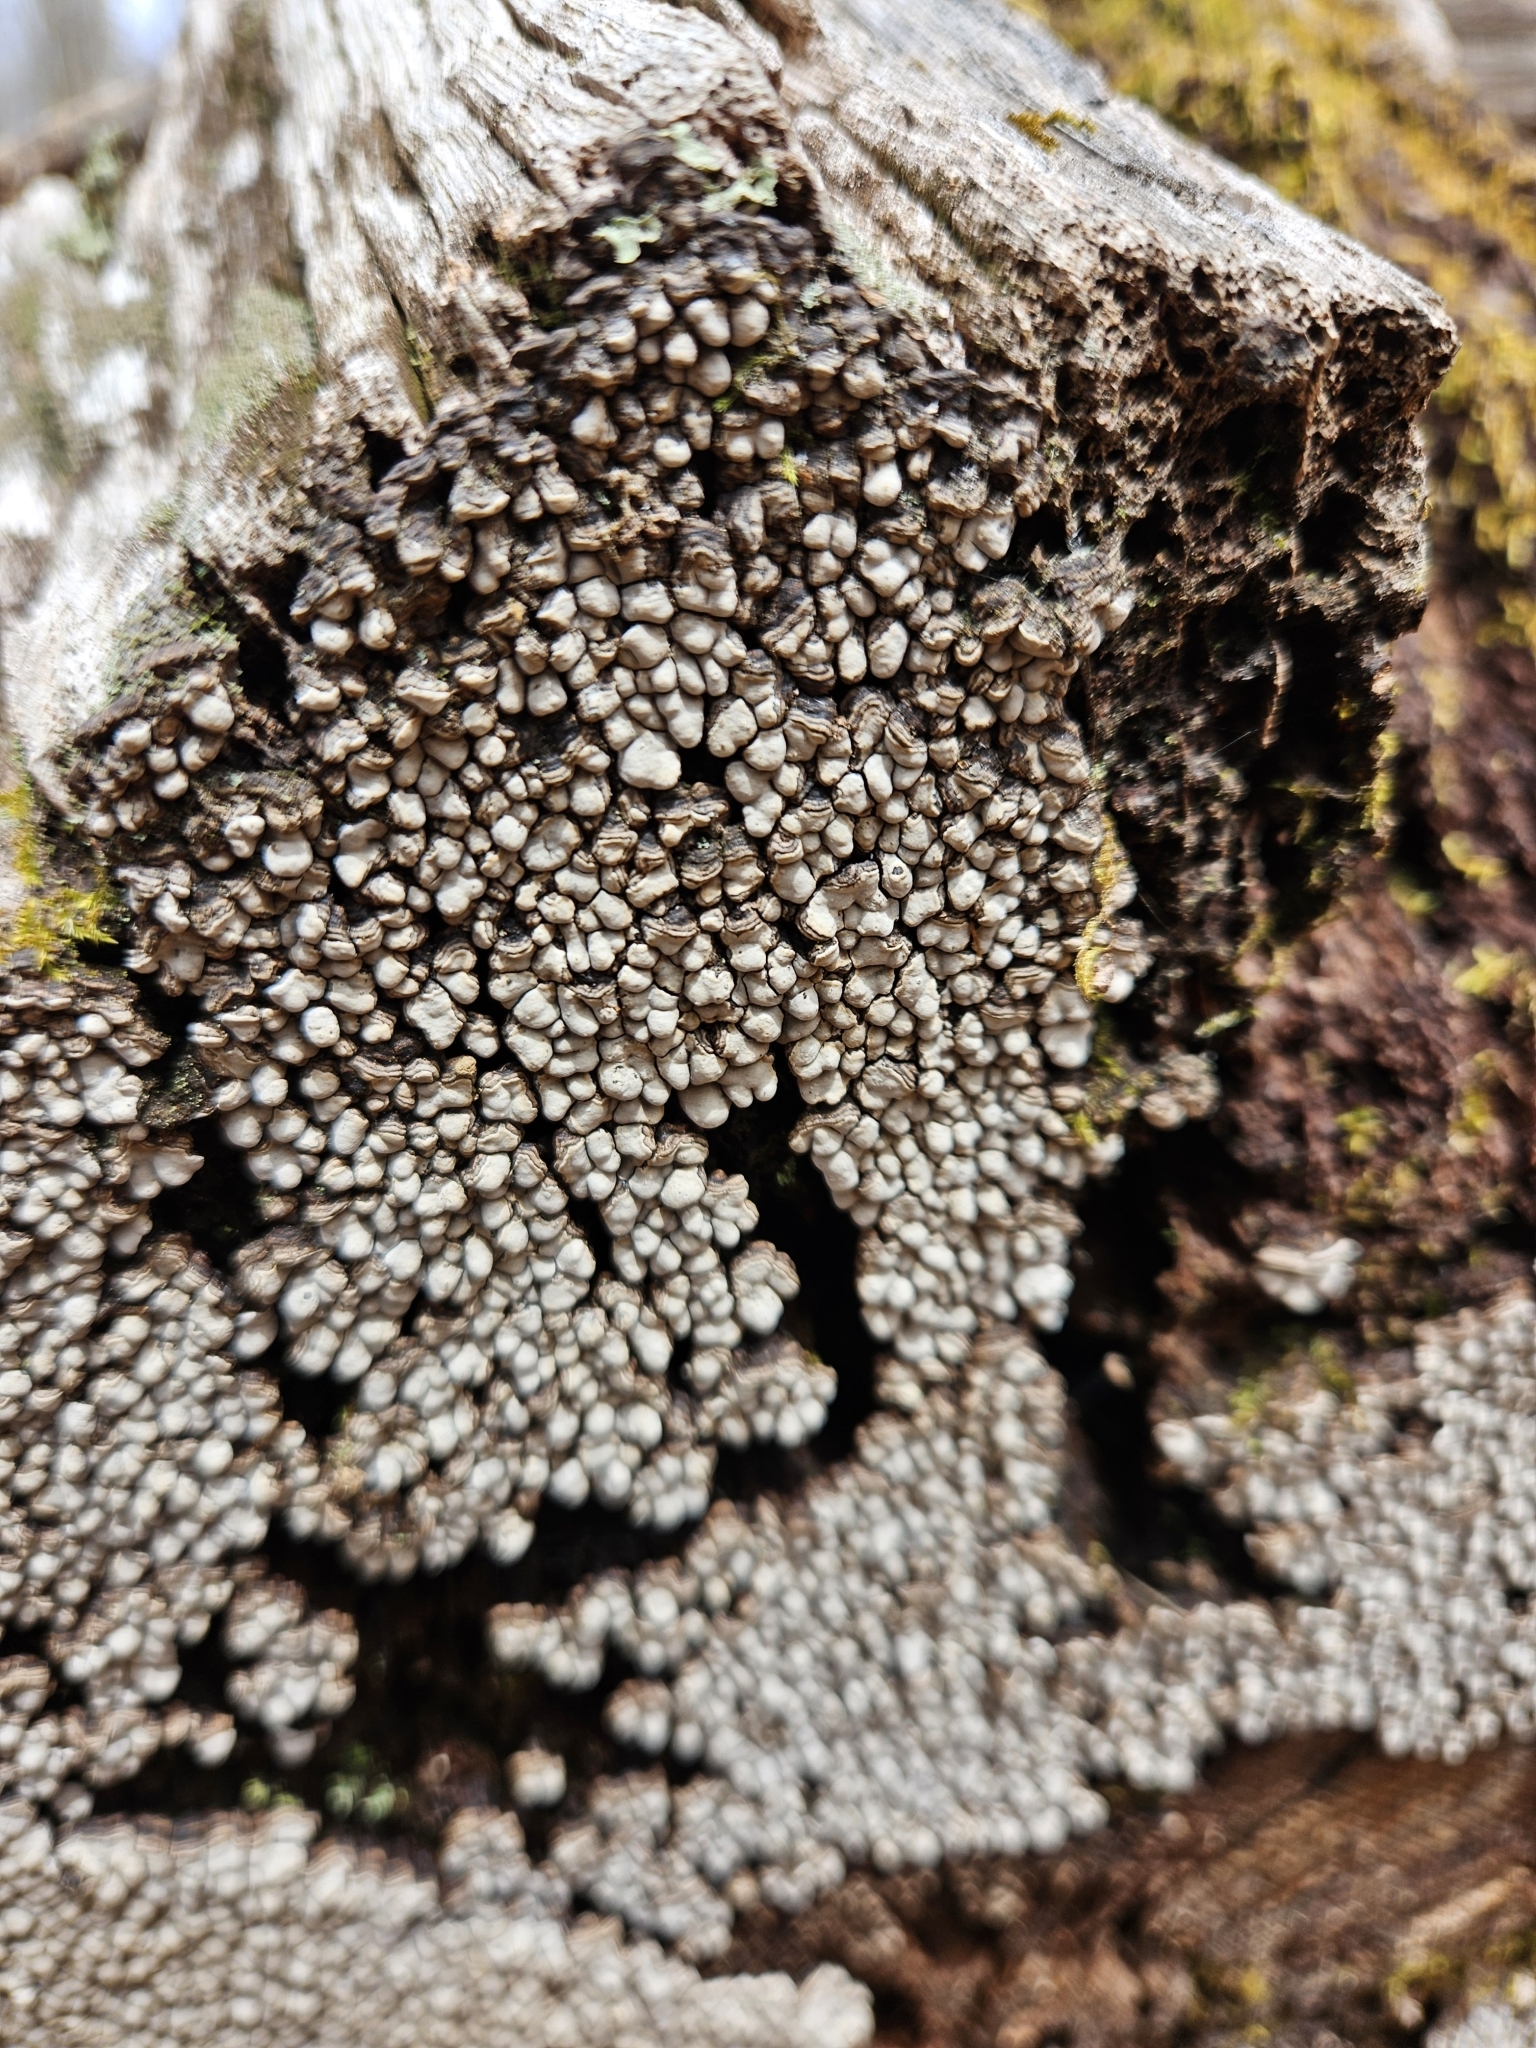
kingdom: Fungi
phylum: Basidiomycota
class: Agaricomycetes
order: Russulales
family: Stereaceae
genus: Xylobolus
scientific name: Xylobolus frustulatus
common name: Ceramic parchment
